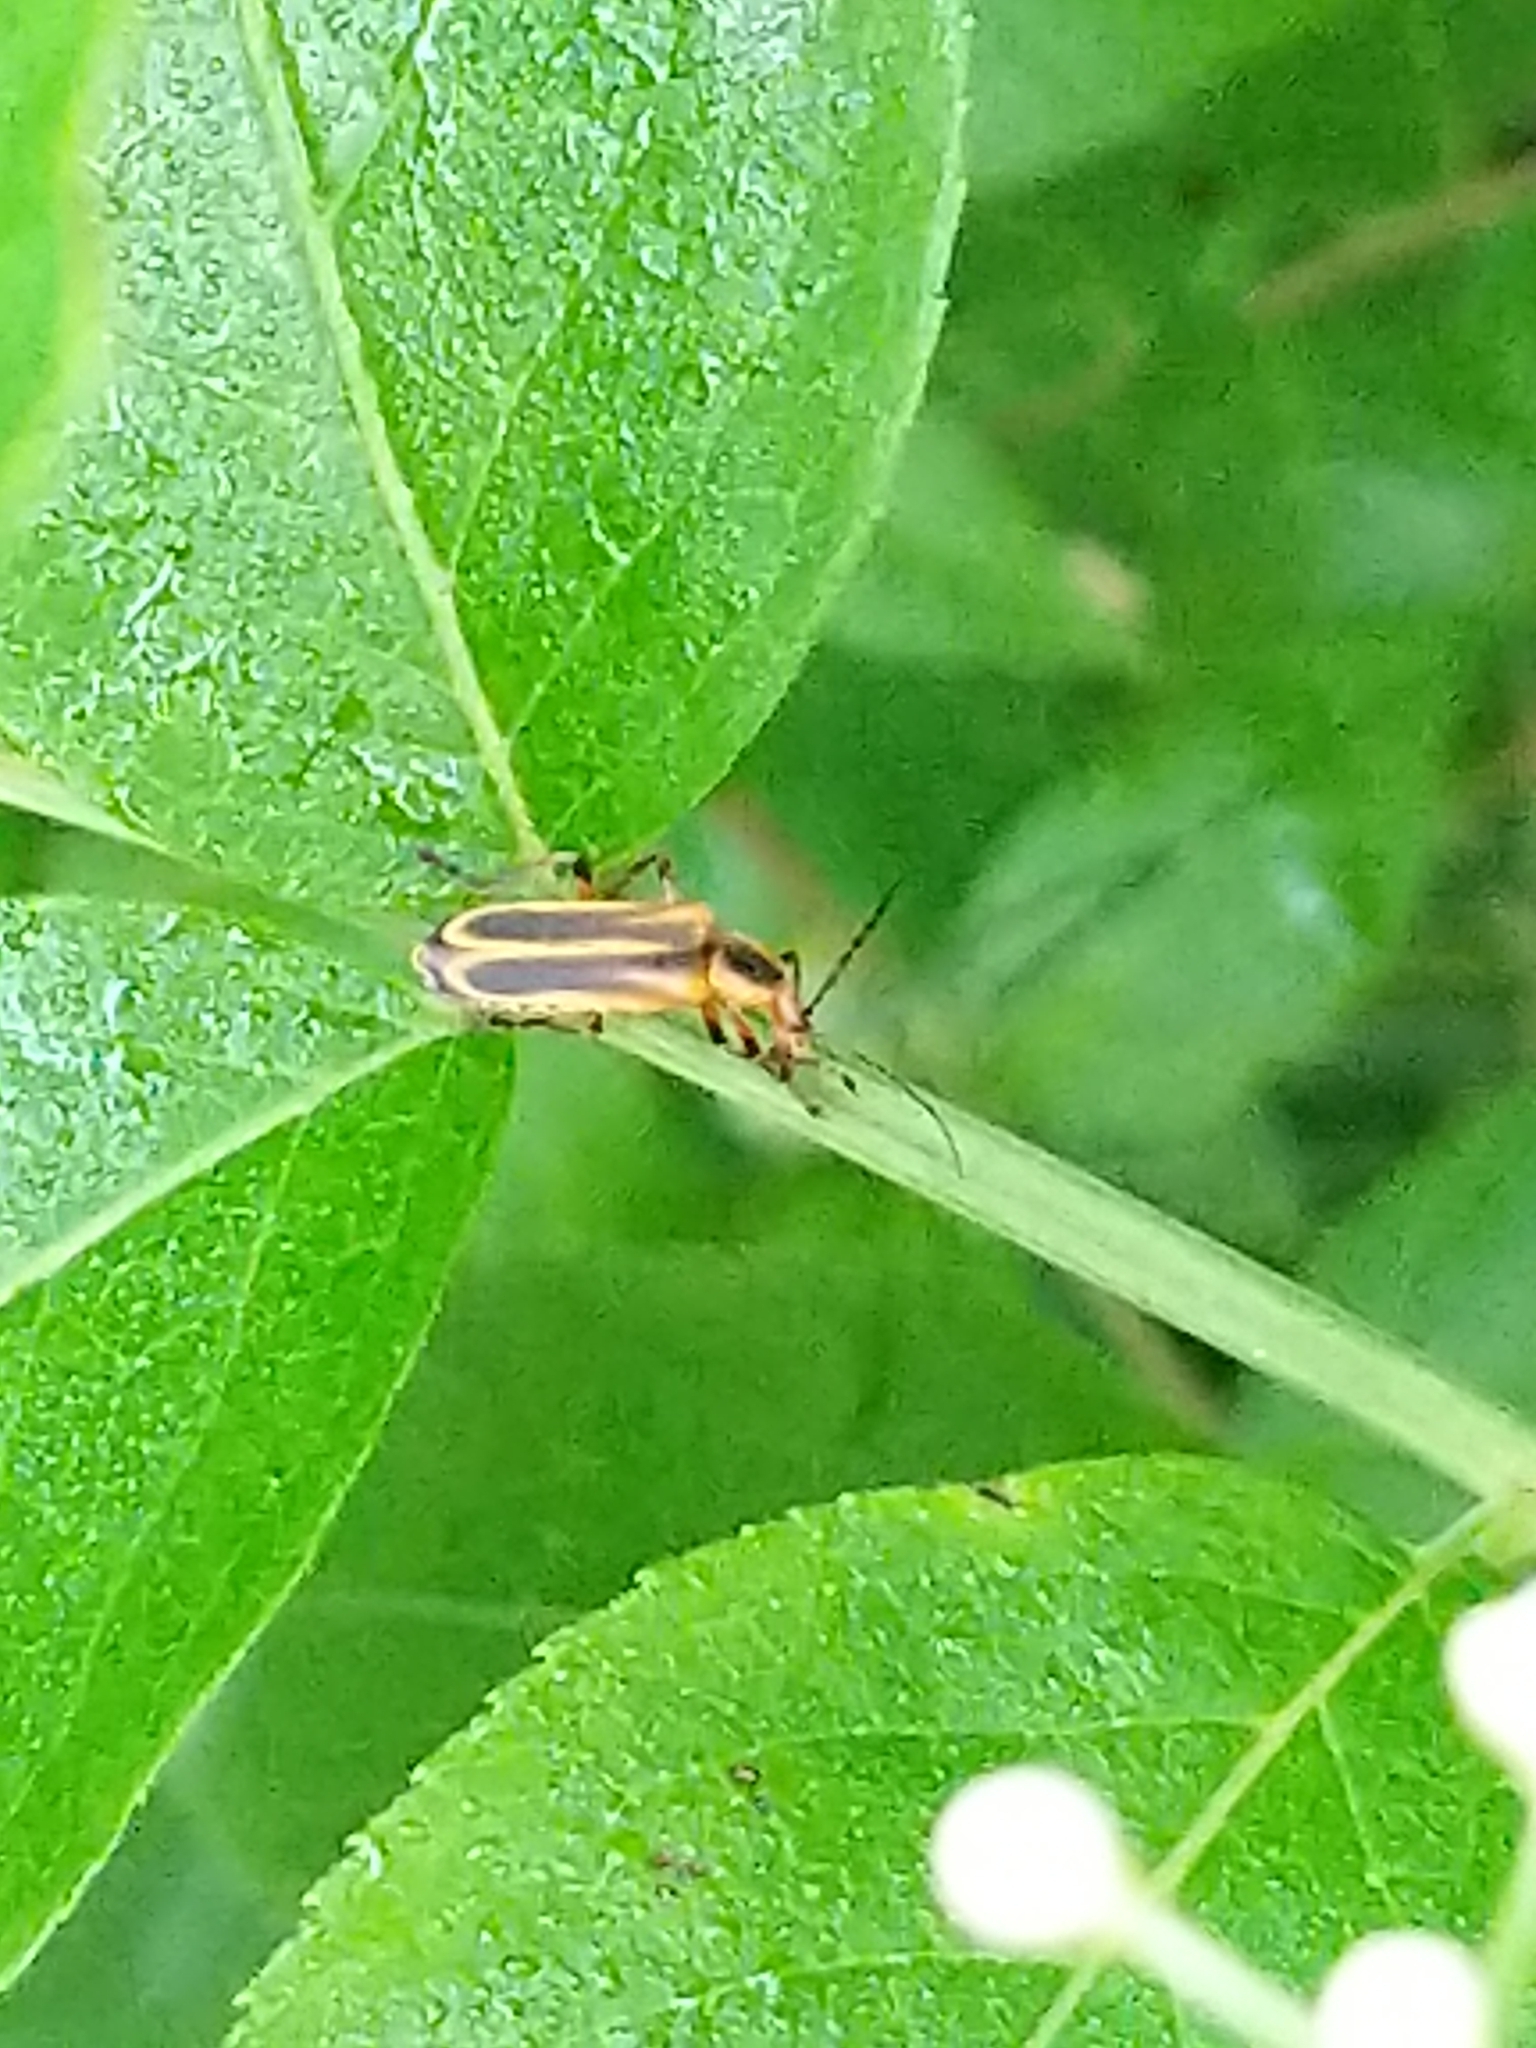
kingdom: Animalia
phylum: Arthropoda
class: Insecta
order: Coleoptera
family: Cantharidae
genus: Chauliognathus
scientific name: Chauliognathus marginatus
